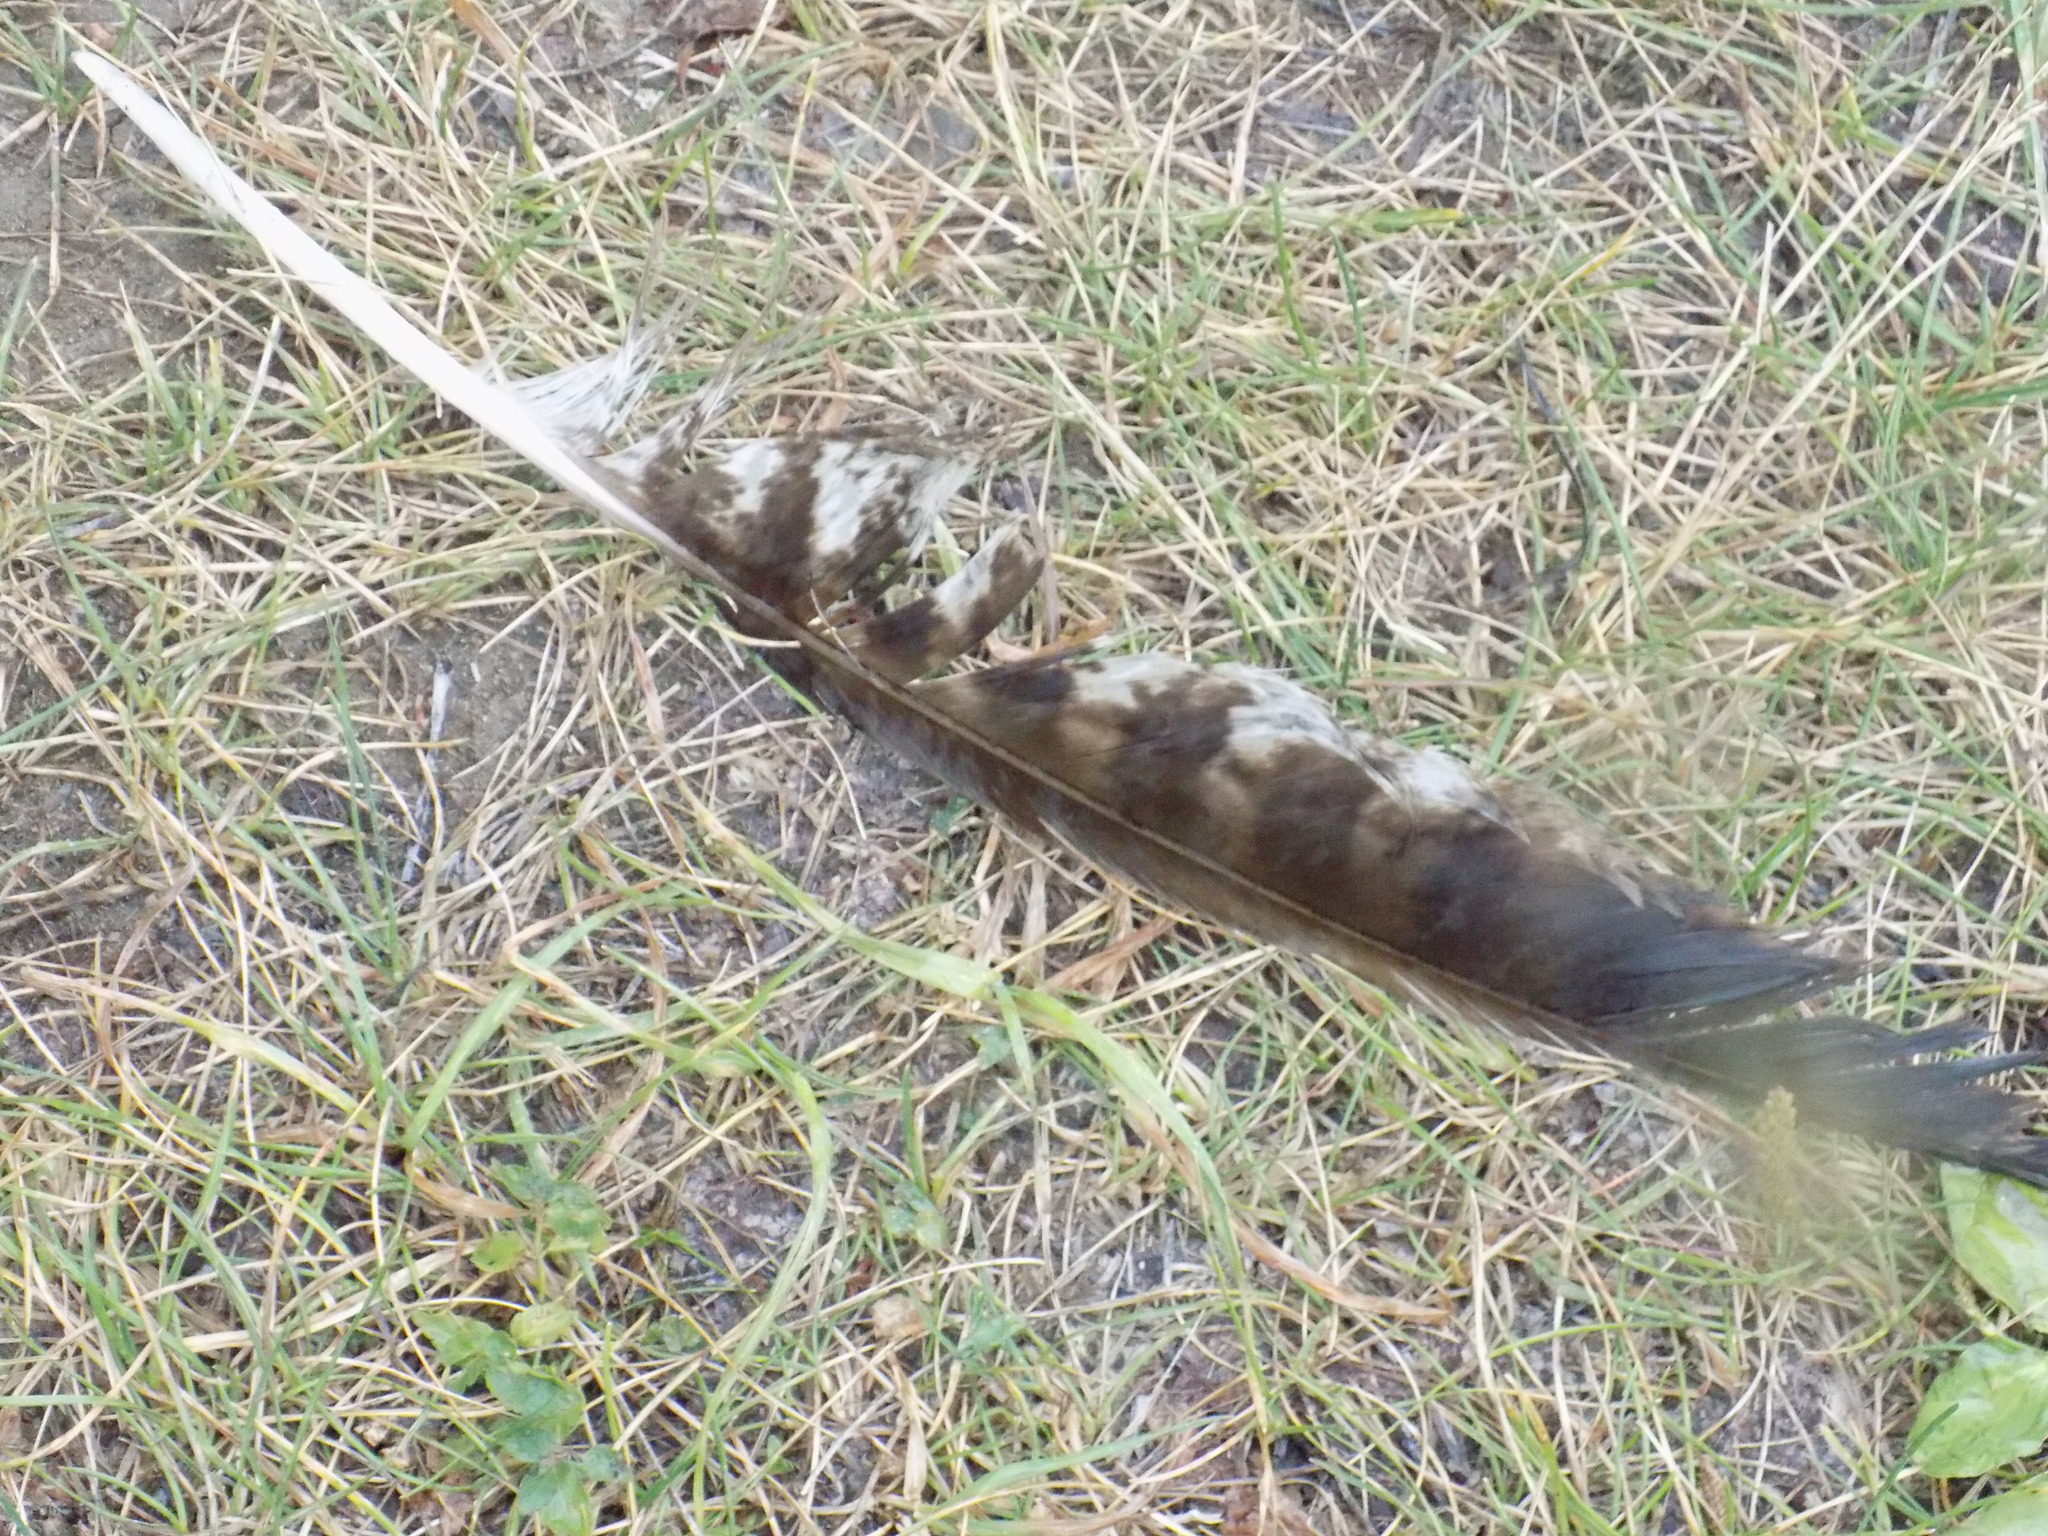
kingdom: Animalia
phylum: Chordata
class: Aves
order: Accipitriformes
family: Accipitridae
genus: Milvus
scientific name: Milvus migrans
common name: Black kite
